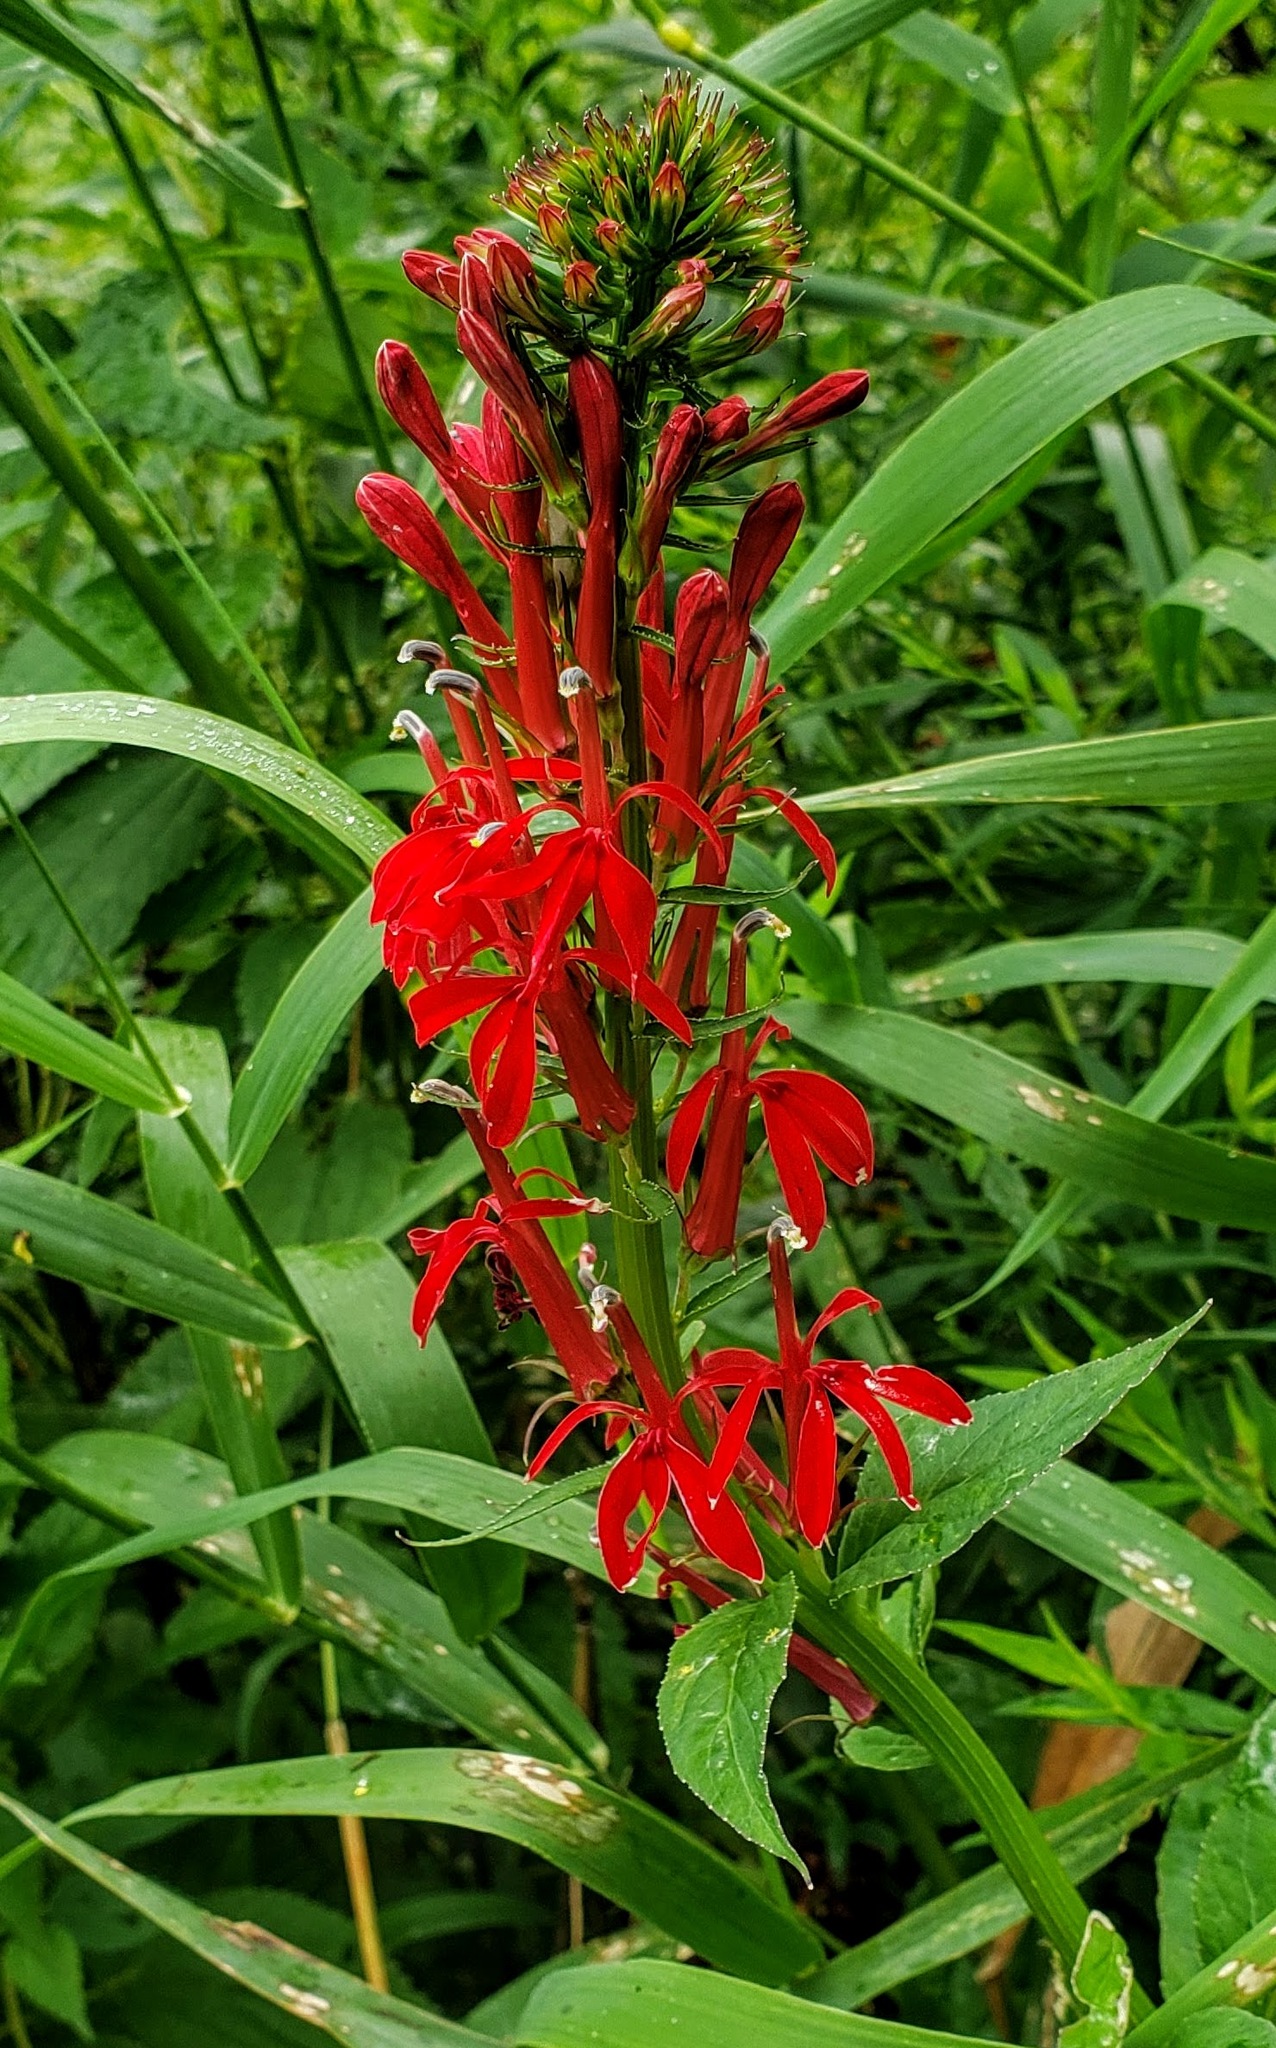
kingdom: Plantae
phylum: Tracheophyta
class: Magnoliopsida
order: Asterales
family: Campanulaceae
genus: Lobelia
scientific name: Lobelia cardinalis
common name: Cardinal flower
